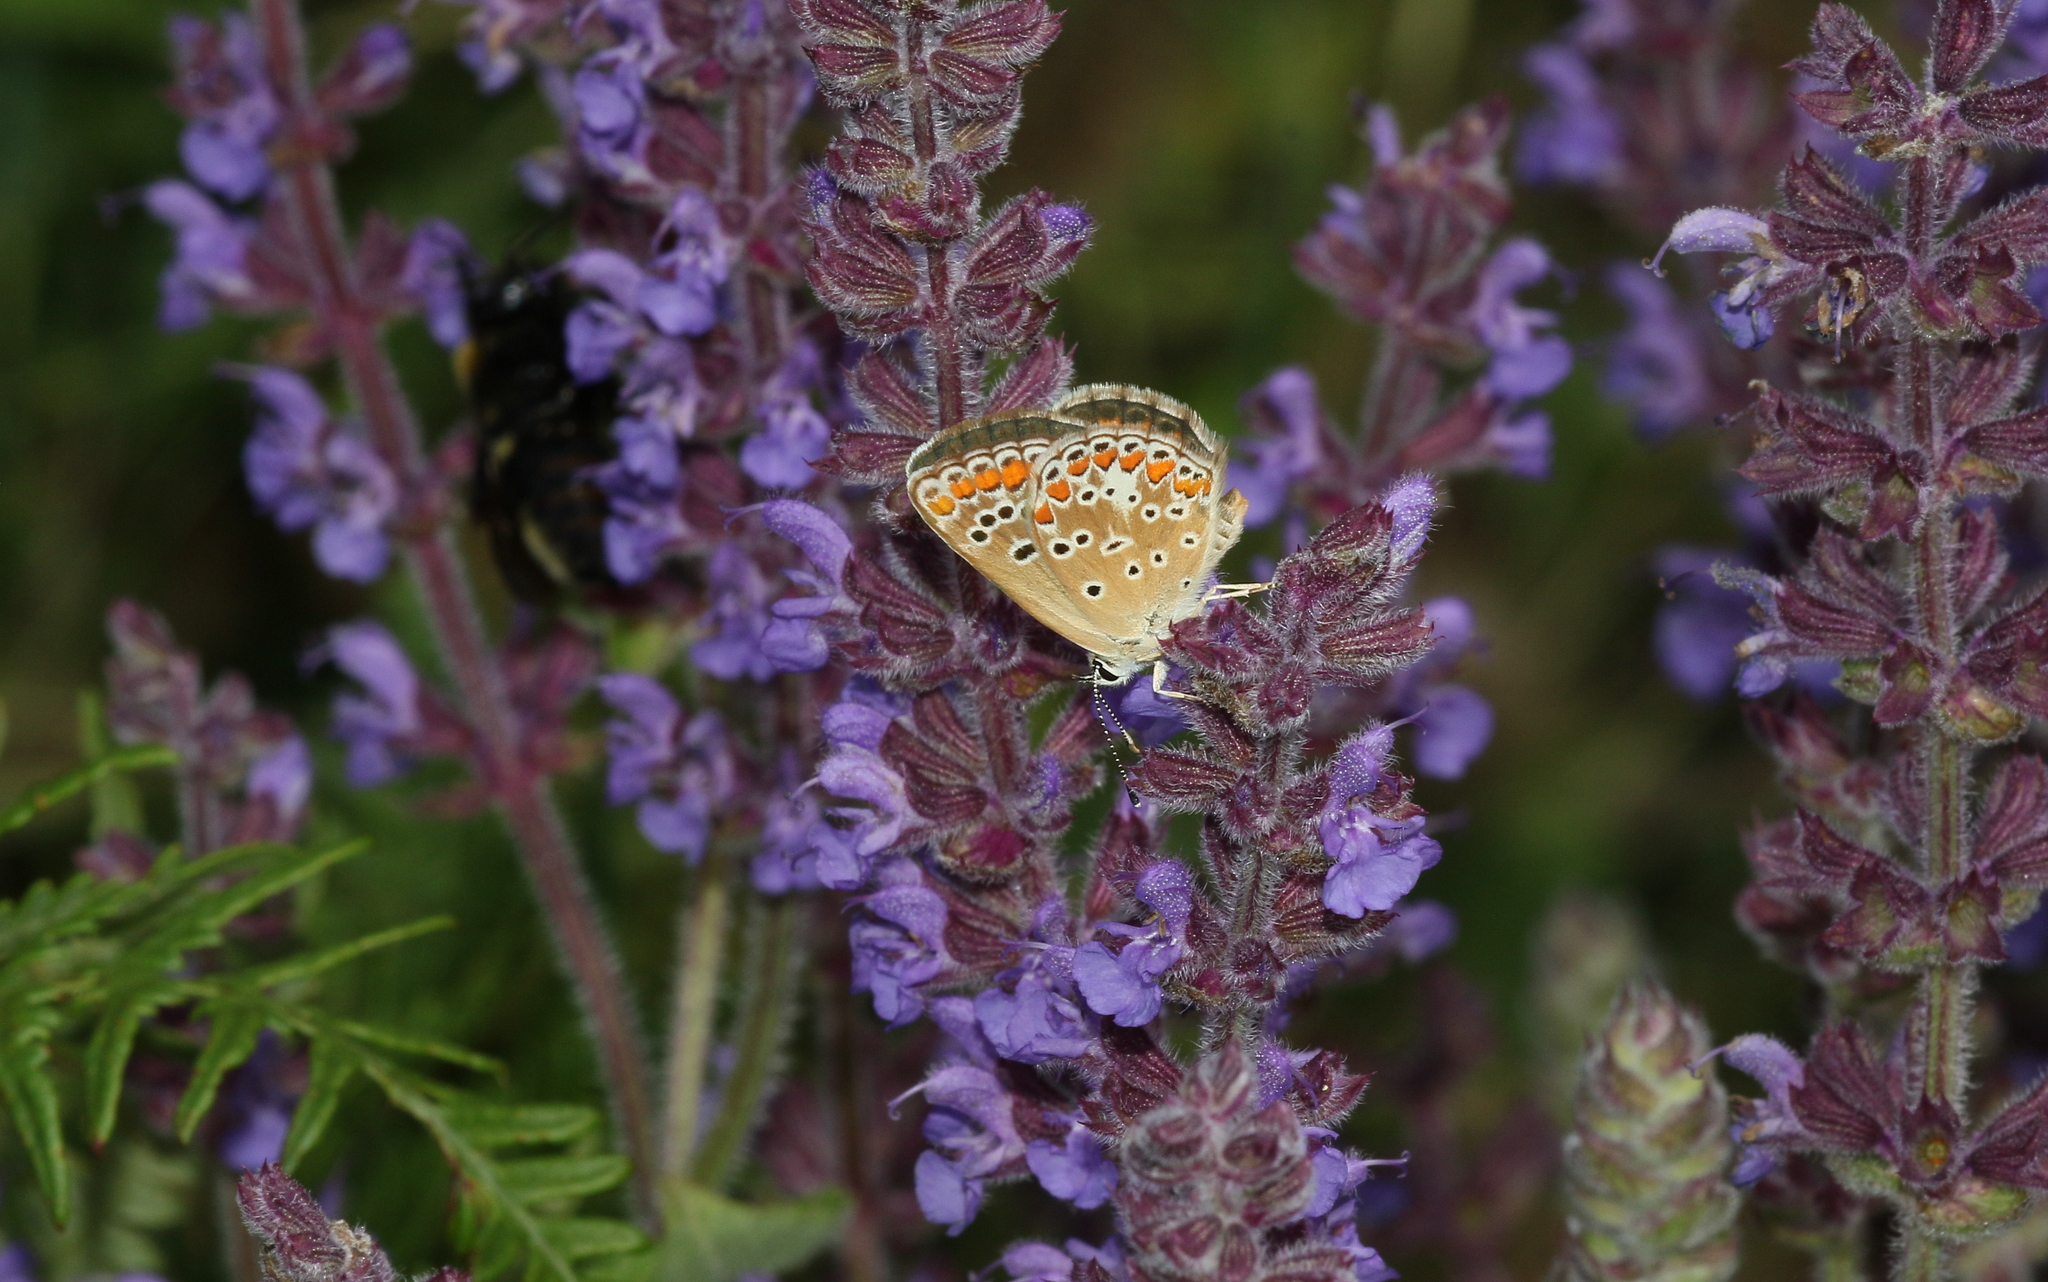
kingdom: Animalia
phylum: Arthropoda
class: Insecta
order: Lepidoptera
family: Lycaenidae
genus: Aricia
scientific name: Aricia agestis
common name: Brown argus
